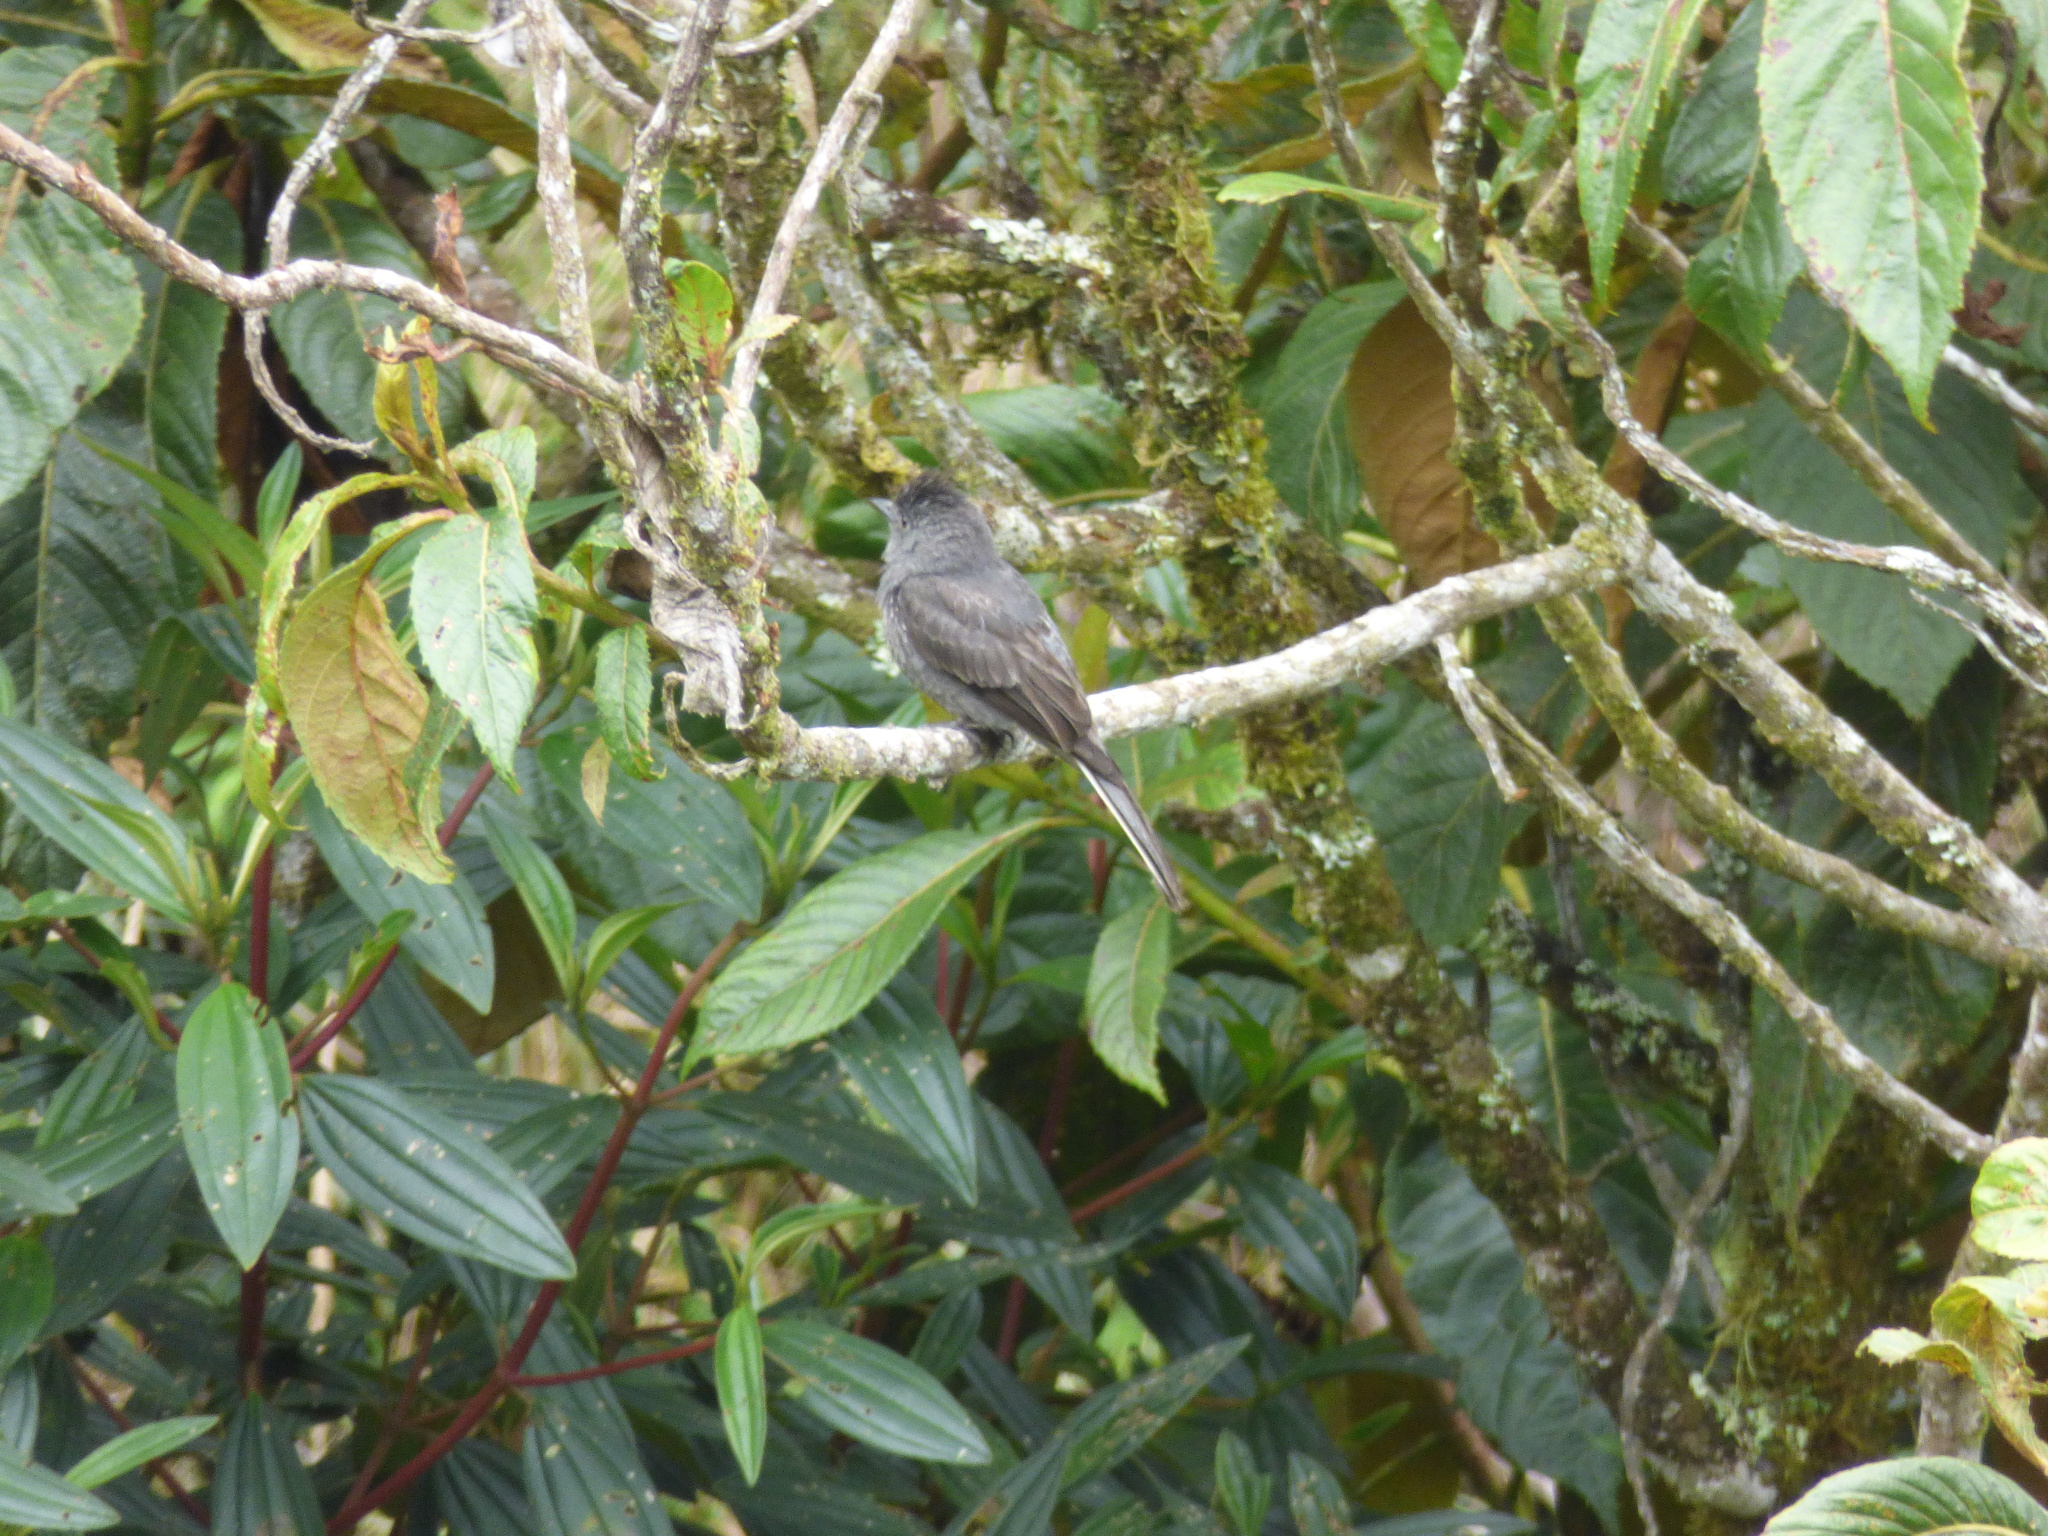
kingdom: Animalia
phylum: Chordata
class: Aves
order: Passeriformes
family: Tyrannidae
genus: Contopus
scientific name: Contopus fumigatus
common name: Smoke-colored pewee
